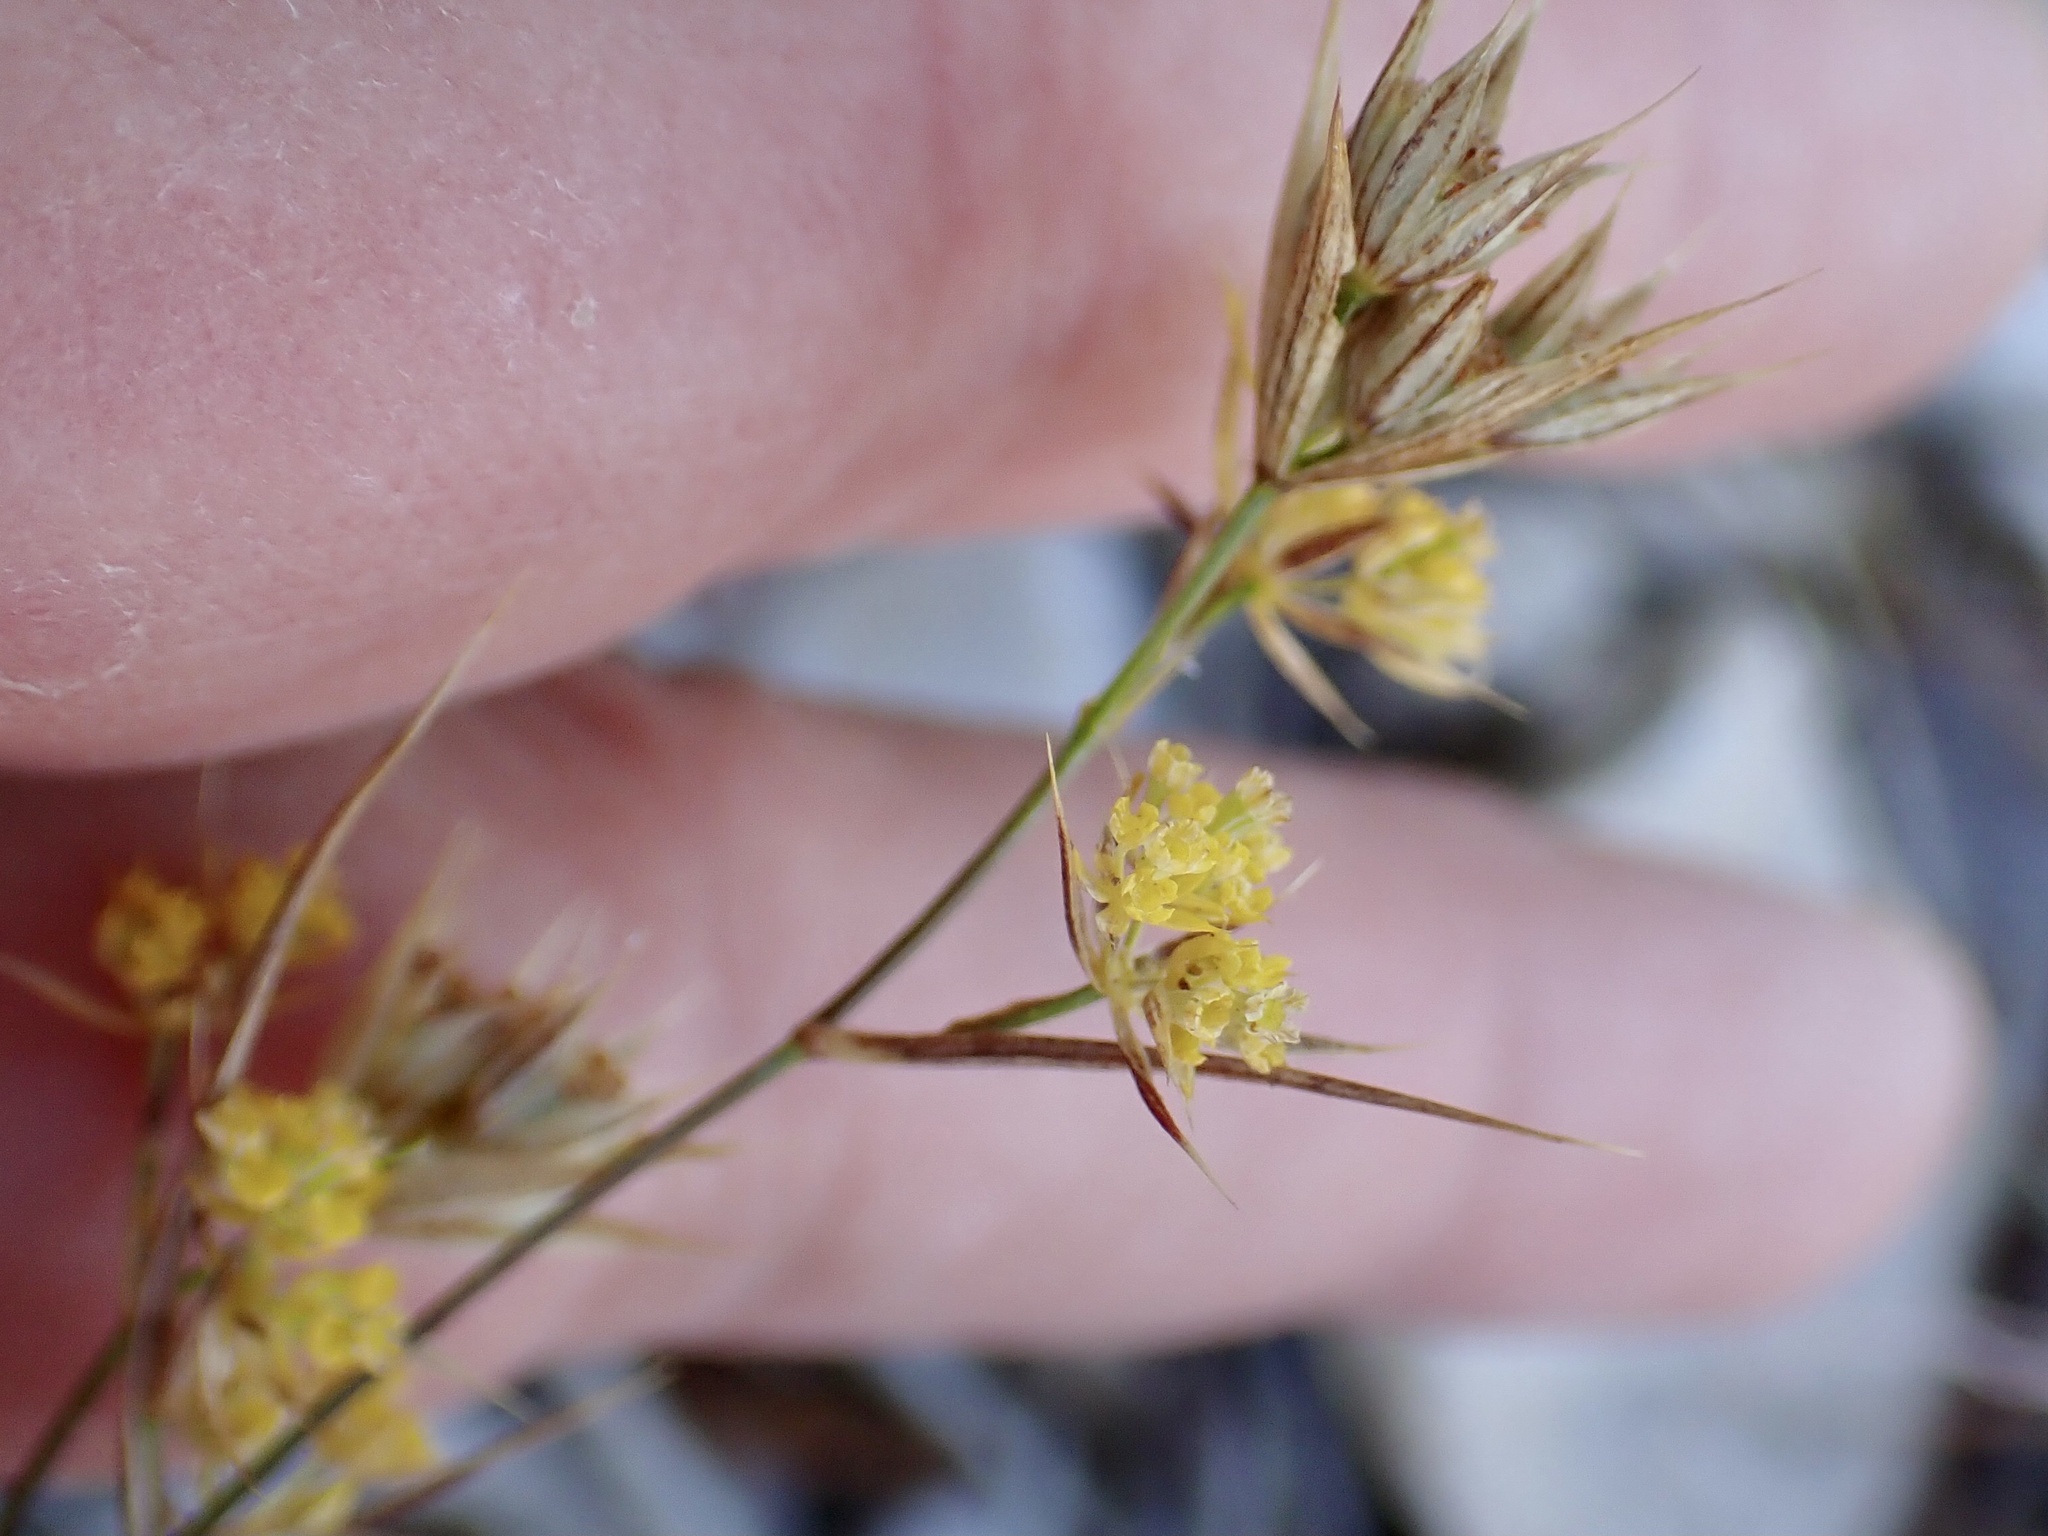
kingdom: Plantae
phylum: Tracheophyta
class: Magnoliopsida
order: Apiales
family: Apiaceae
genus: Bupleurum
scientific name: Bupleurum veronense
